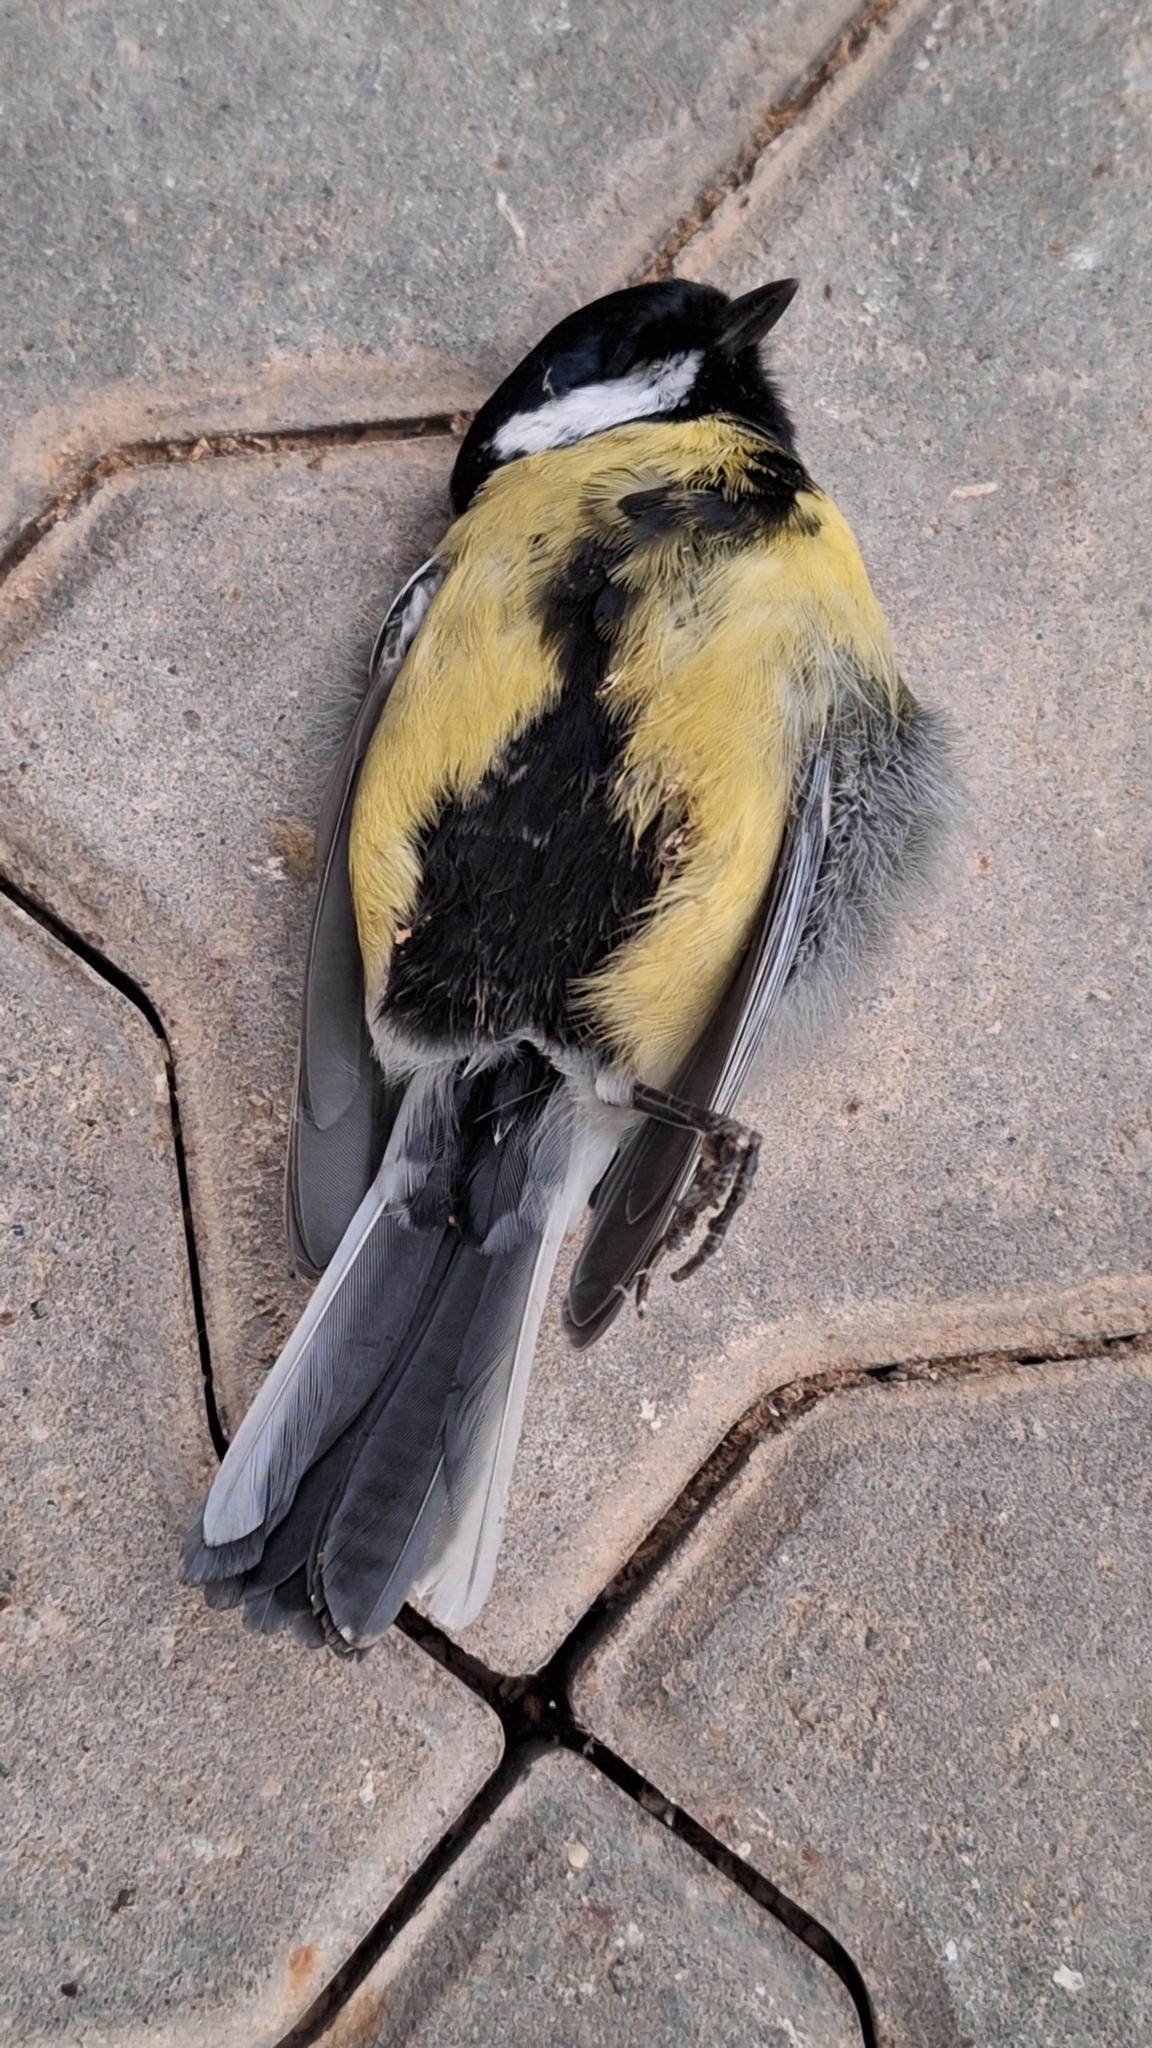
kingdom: Animalia
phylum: Chordata
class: Aves
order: Passeriformes
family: Paridae
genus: Parus
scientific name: Parus major
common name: Great tit
